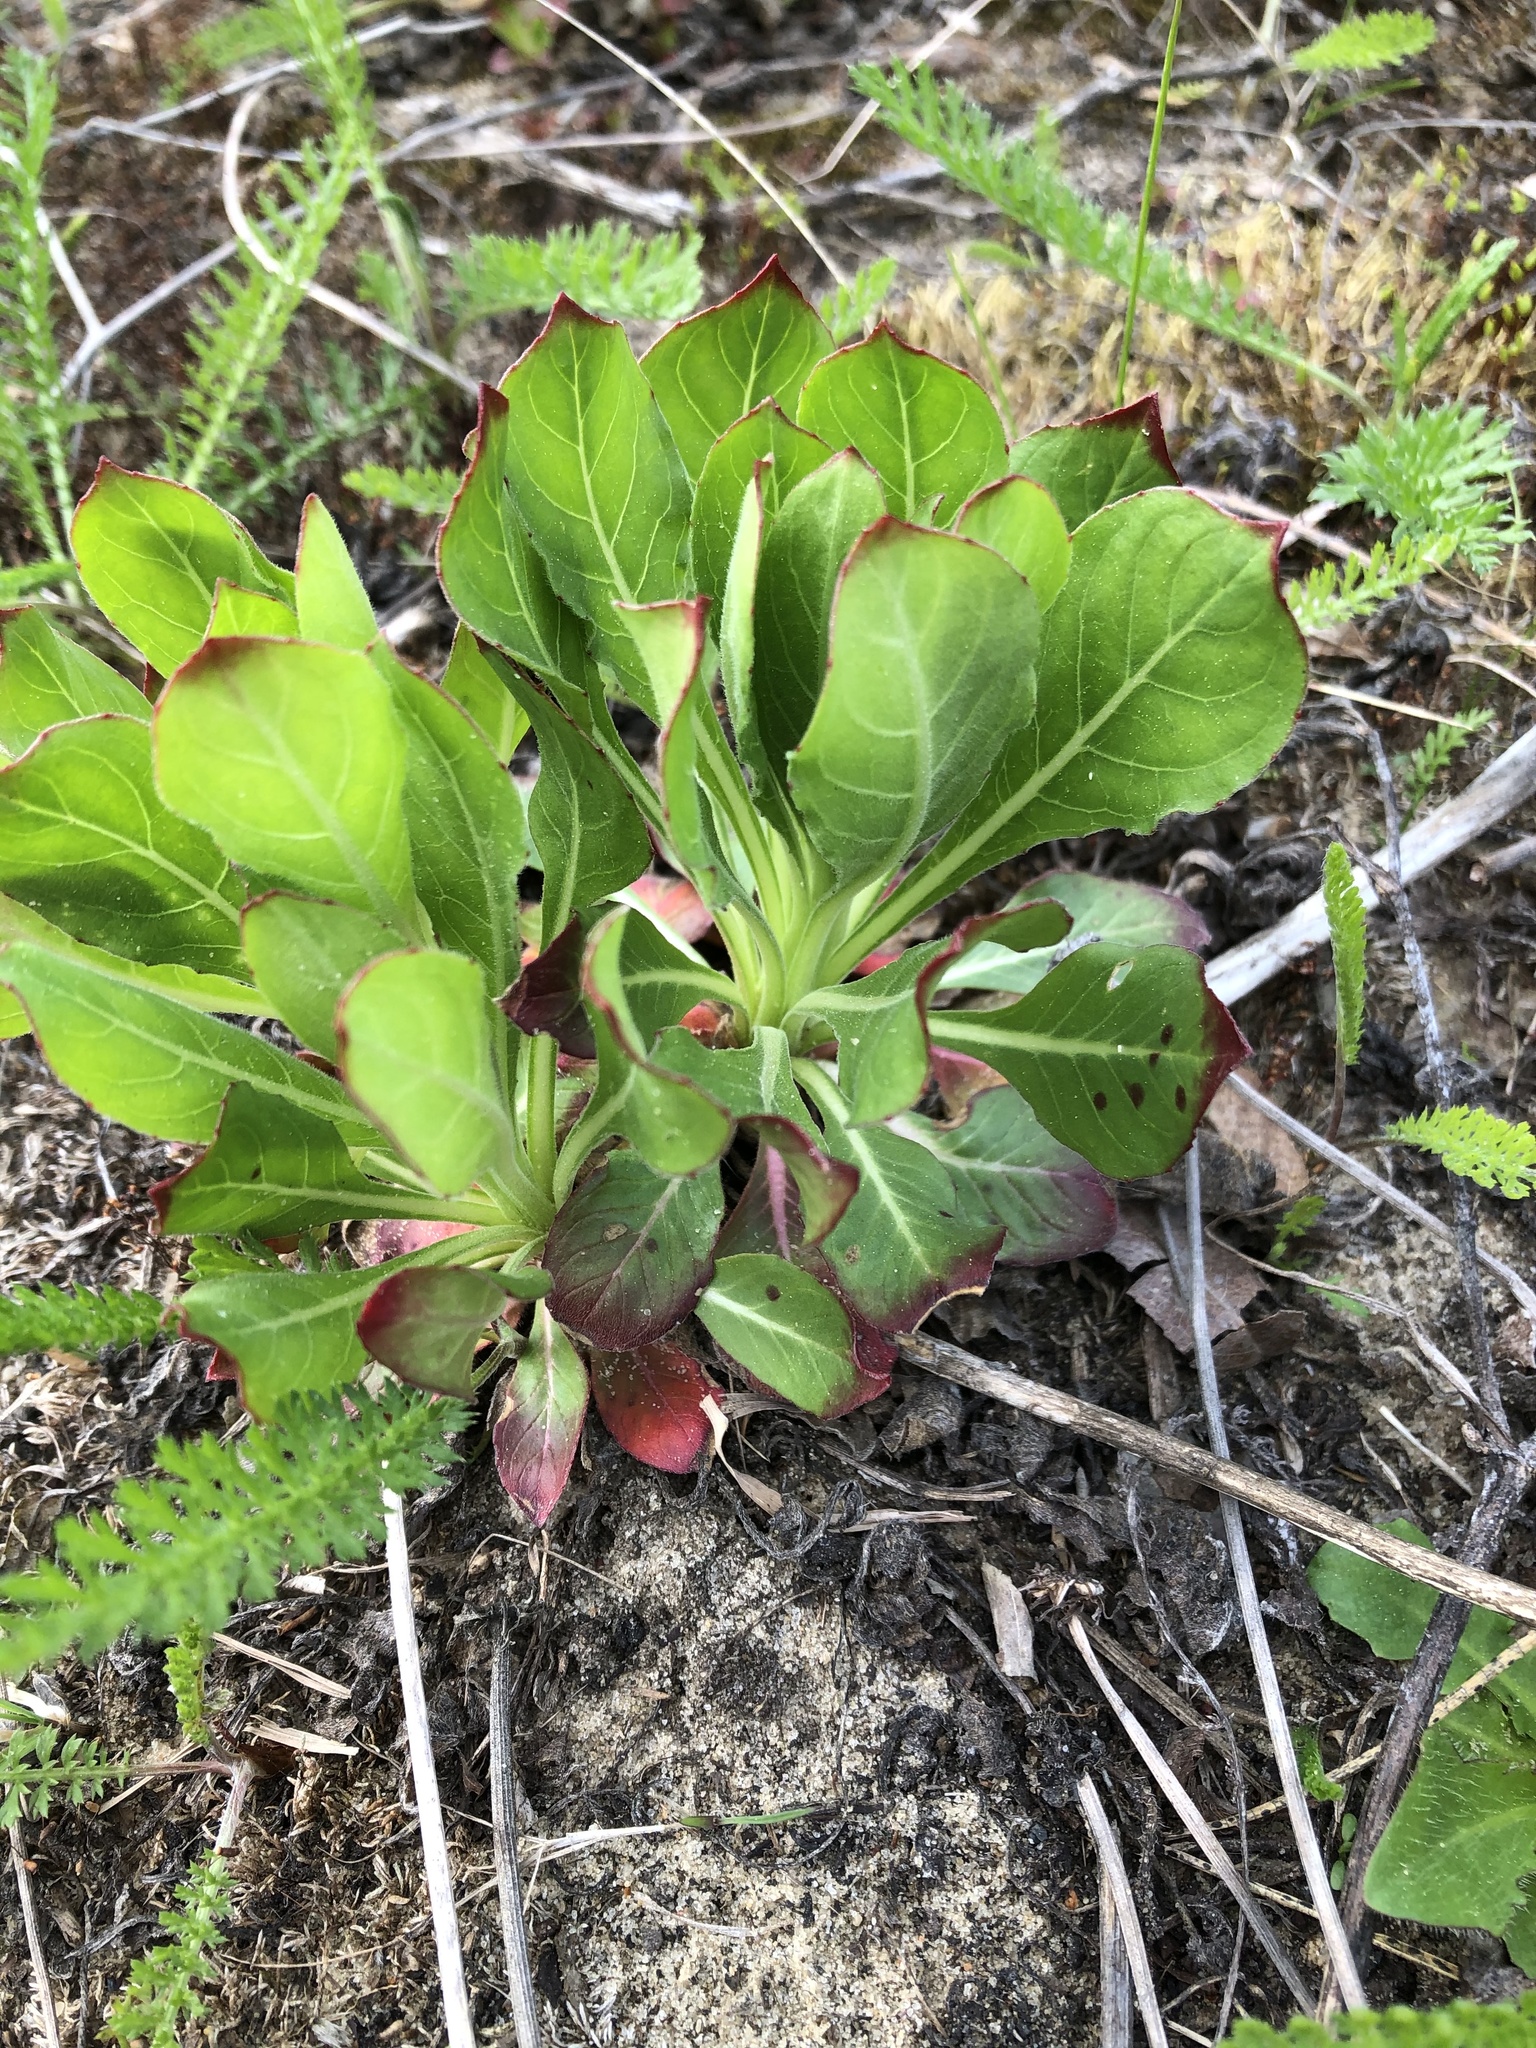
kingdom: Plantae
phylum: Tracheophyta
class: Magnoliopsida
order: Myrtales
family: Onagraceae
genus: Oenothera
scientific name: Oenothera
